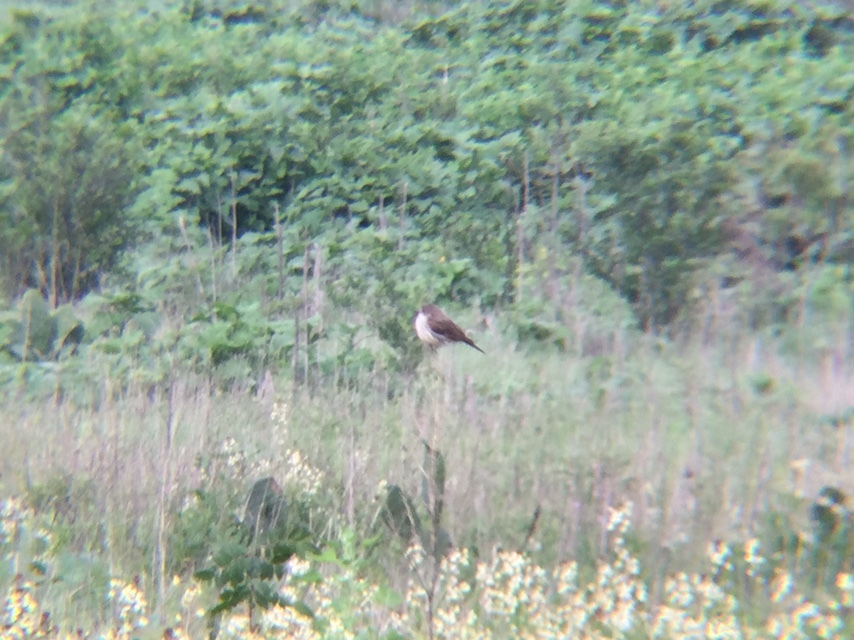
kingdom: Animalia
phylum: Chordata
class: Aves
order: Passeriformes
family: Tyrannidae
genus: Pyrocephalus
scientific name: Pyrocephalus rubinus
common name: Vermilion flycatcher
